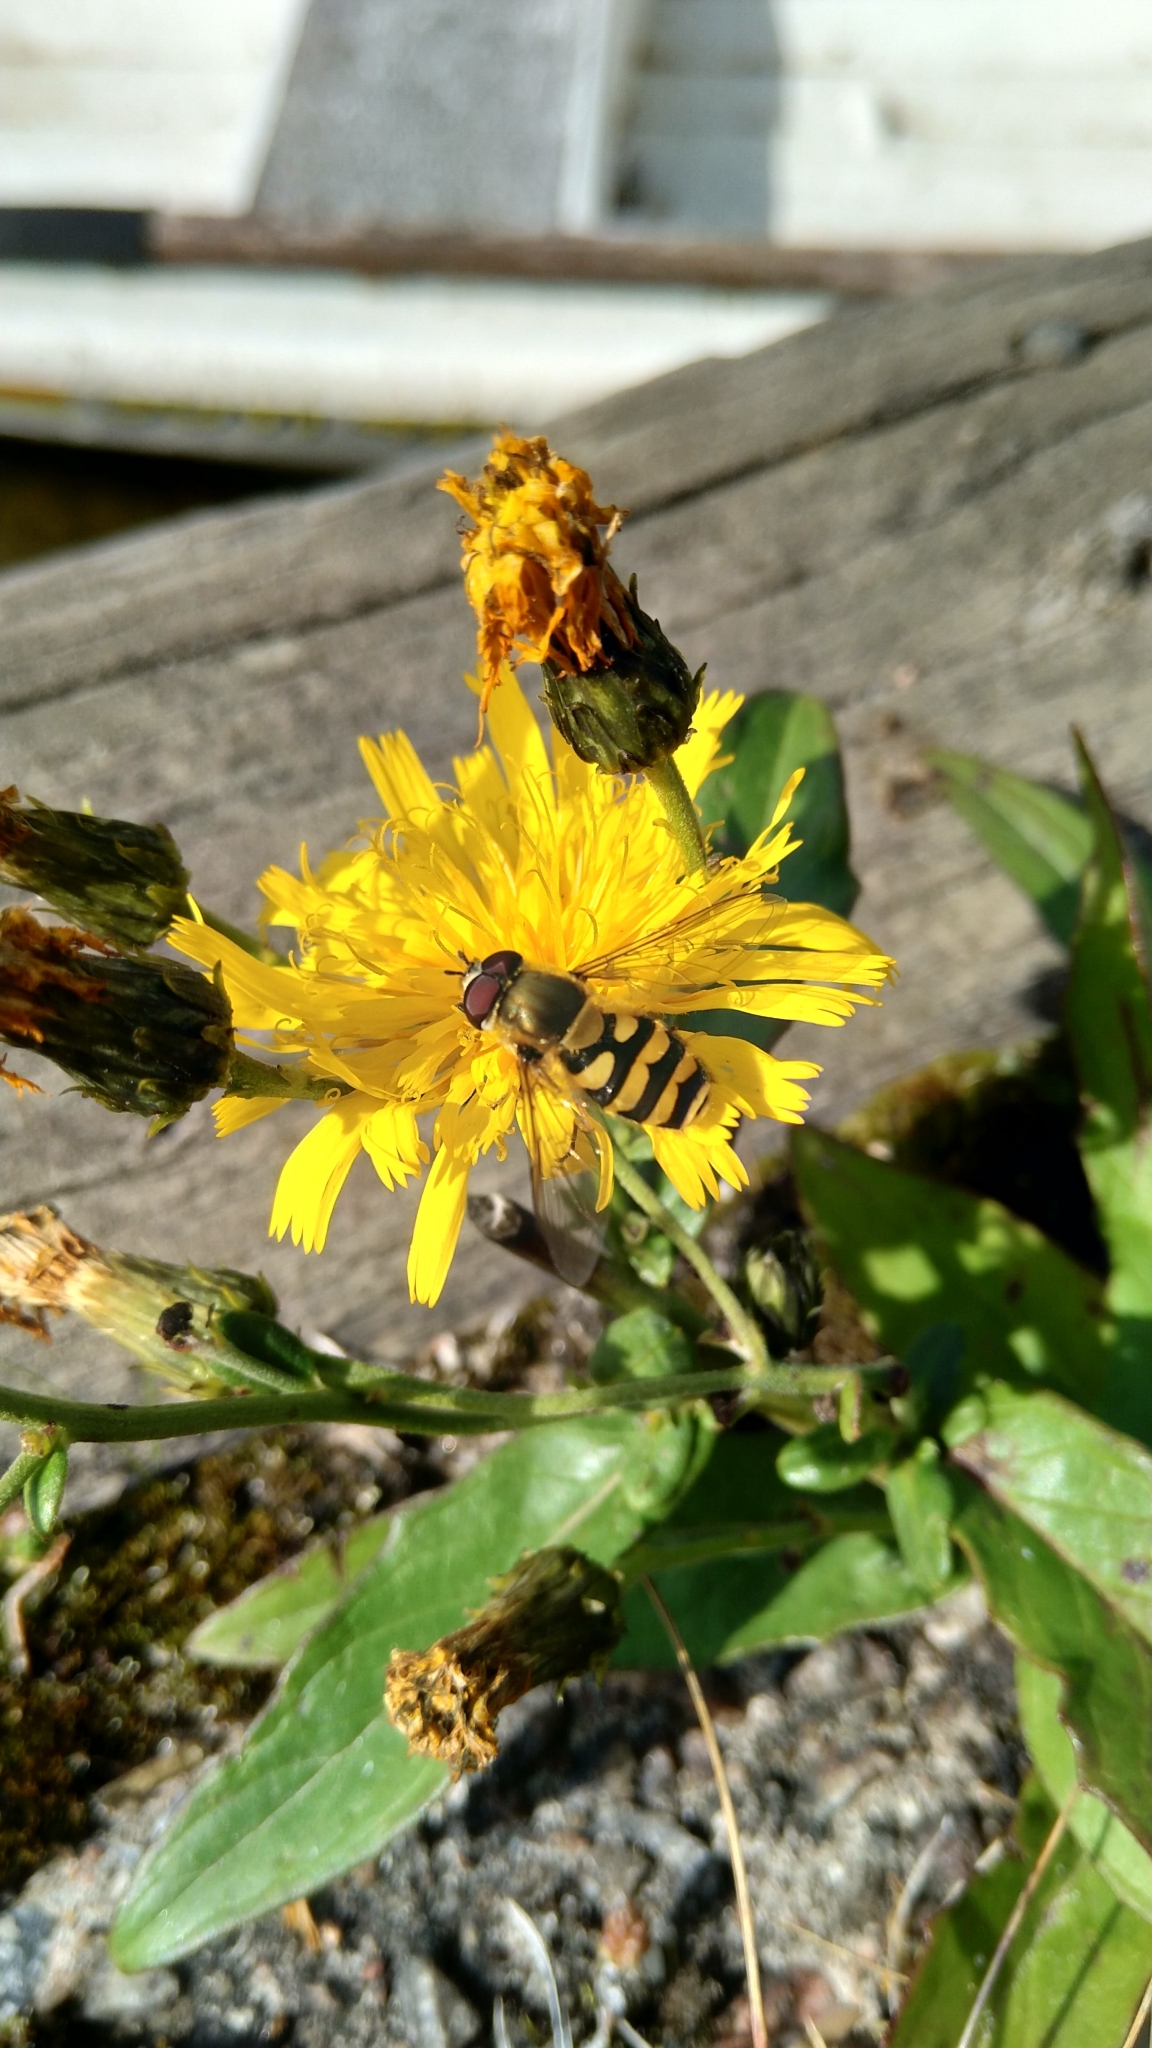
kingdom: Animalia
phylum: Arthropoda
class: Insecta
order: Diptera
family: Syrphidae
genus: Syrphus
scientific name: Syrphus
